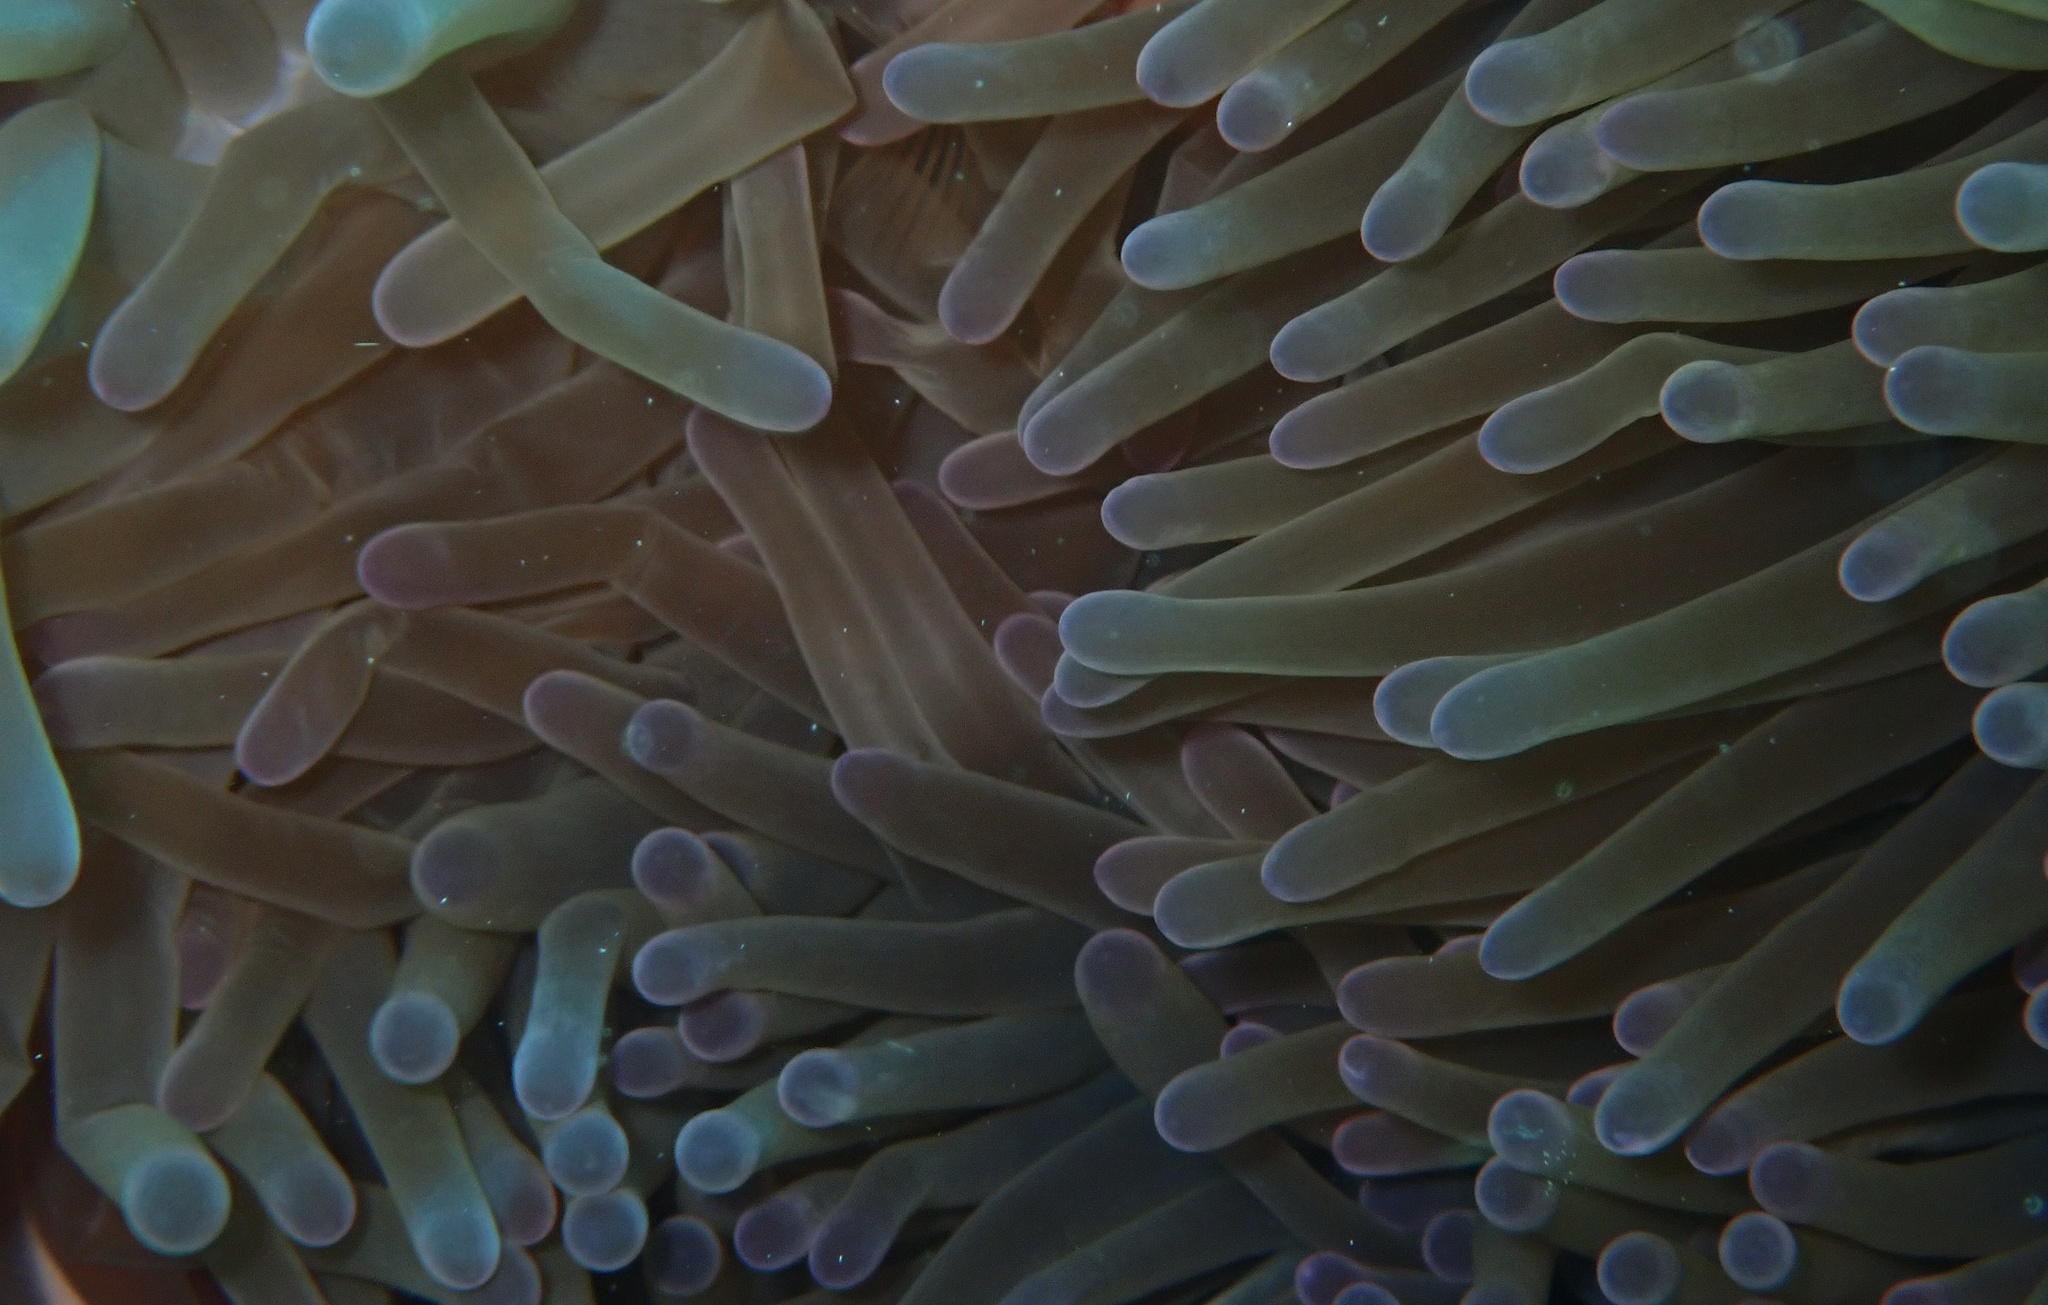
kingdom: Animalia
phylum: Cnidaria
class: Anthozoa
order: Actiniaria
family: Stichodactylidae
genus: Radianthus
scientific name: Radianthus magnifica
